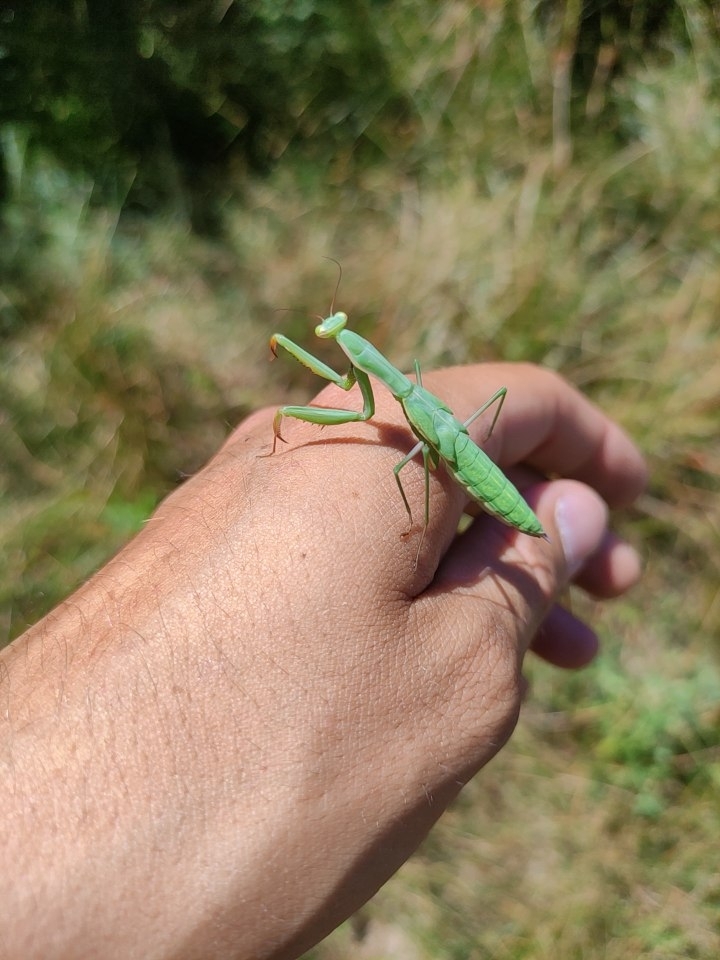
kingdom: Animalia
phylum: Arthropoda
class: Insecta
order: Mantodea
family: Mantidae
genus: Mantis
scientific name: Mantis religiosa
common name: Praying mantis
